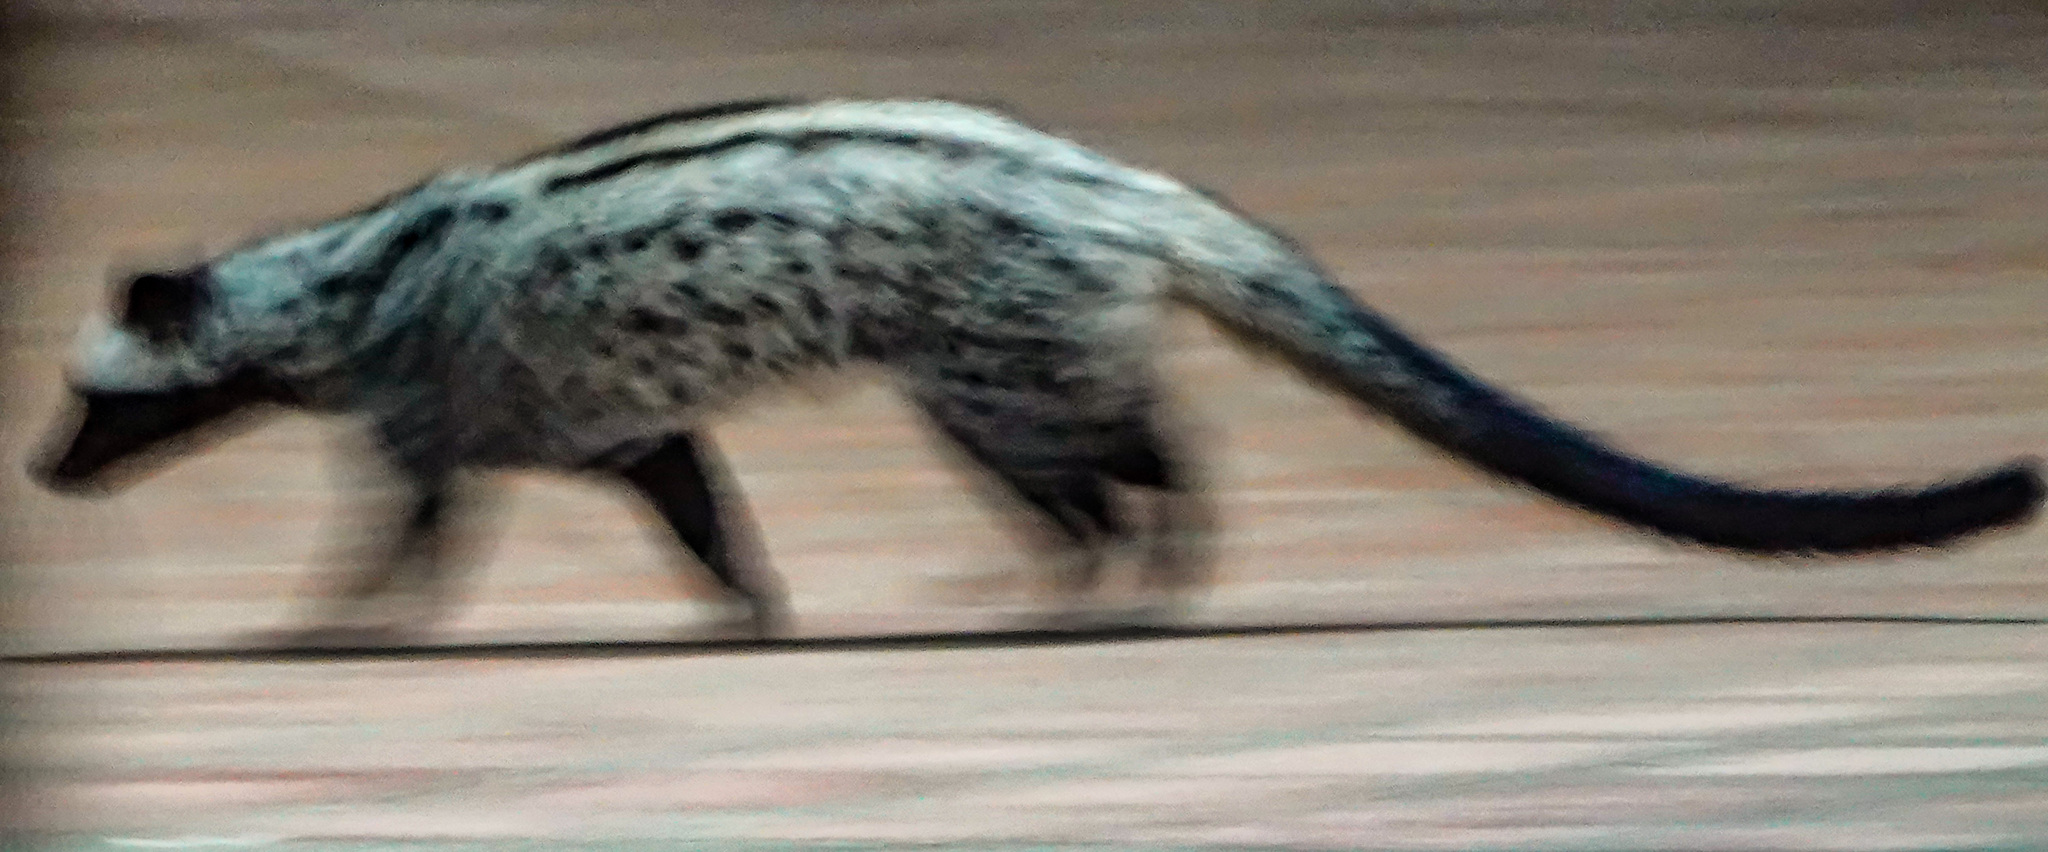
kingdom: Animalia
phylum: Chordata
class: Mammalia
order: Carnivora
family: Viverridae
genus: Paradoxurus
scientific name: Paradoxurus hermaphroditus
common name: Common palm civet
